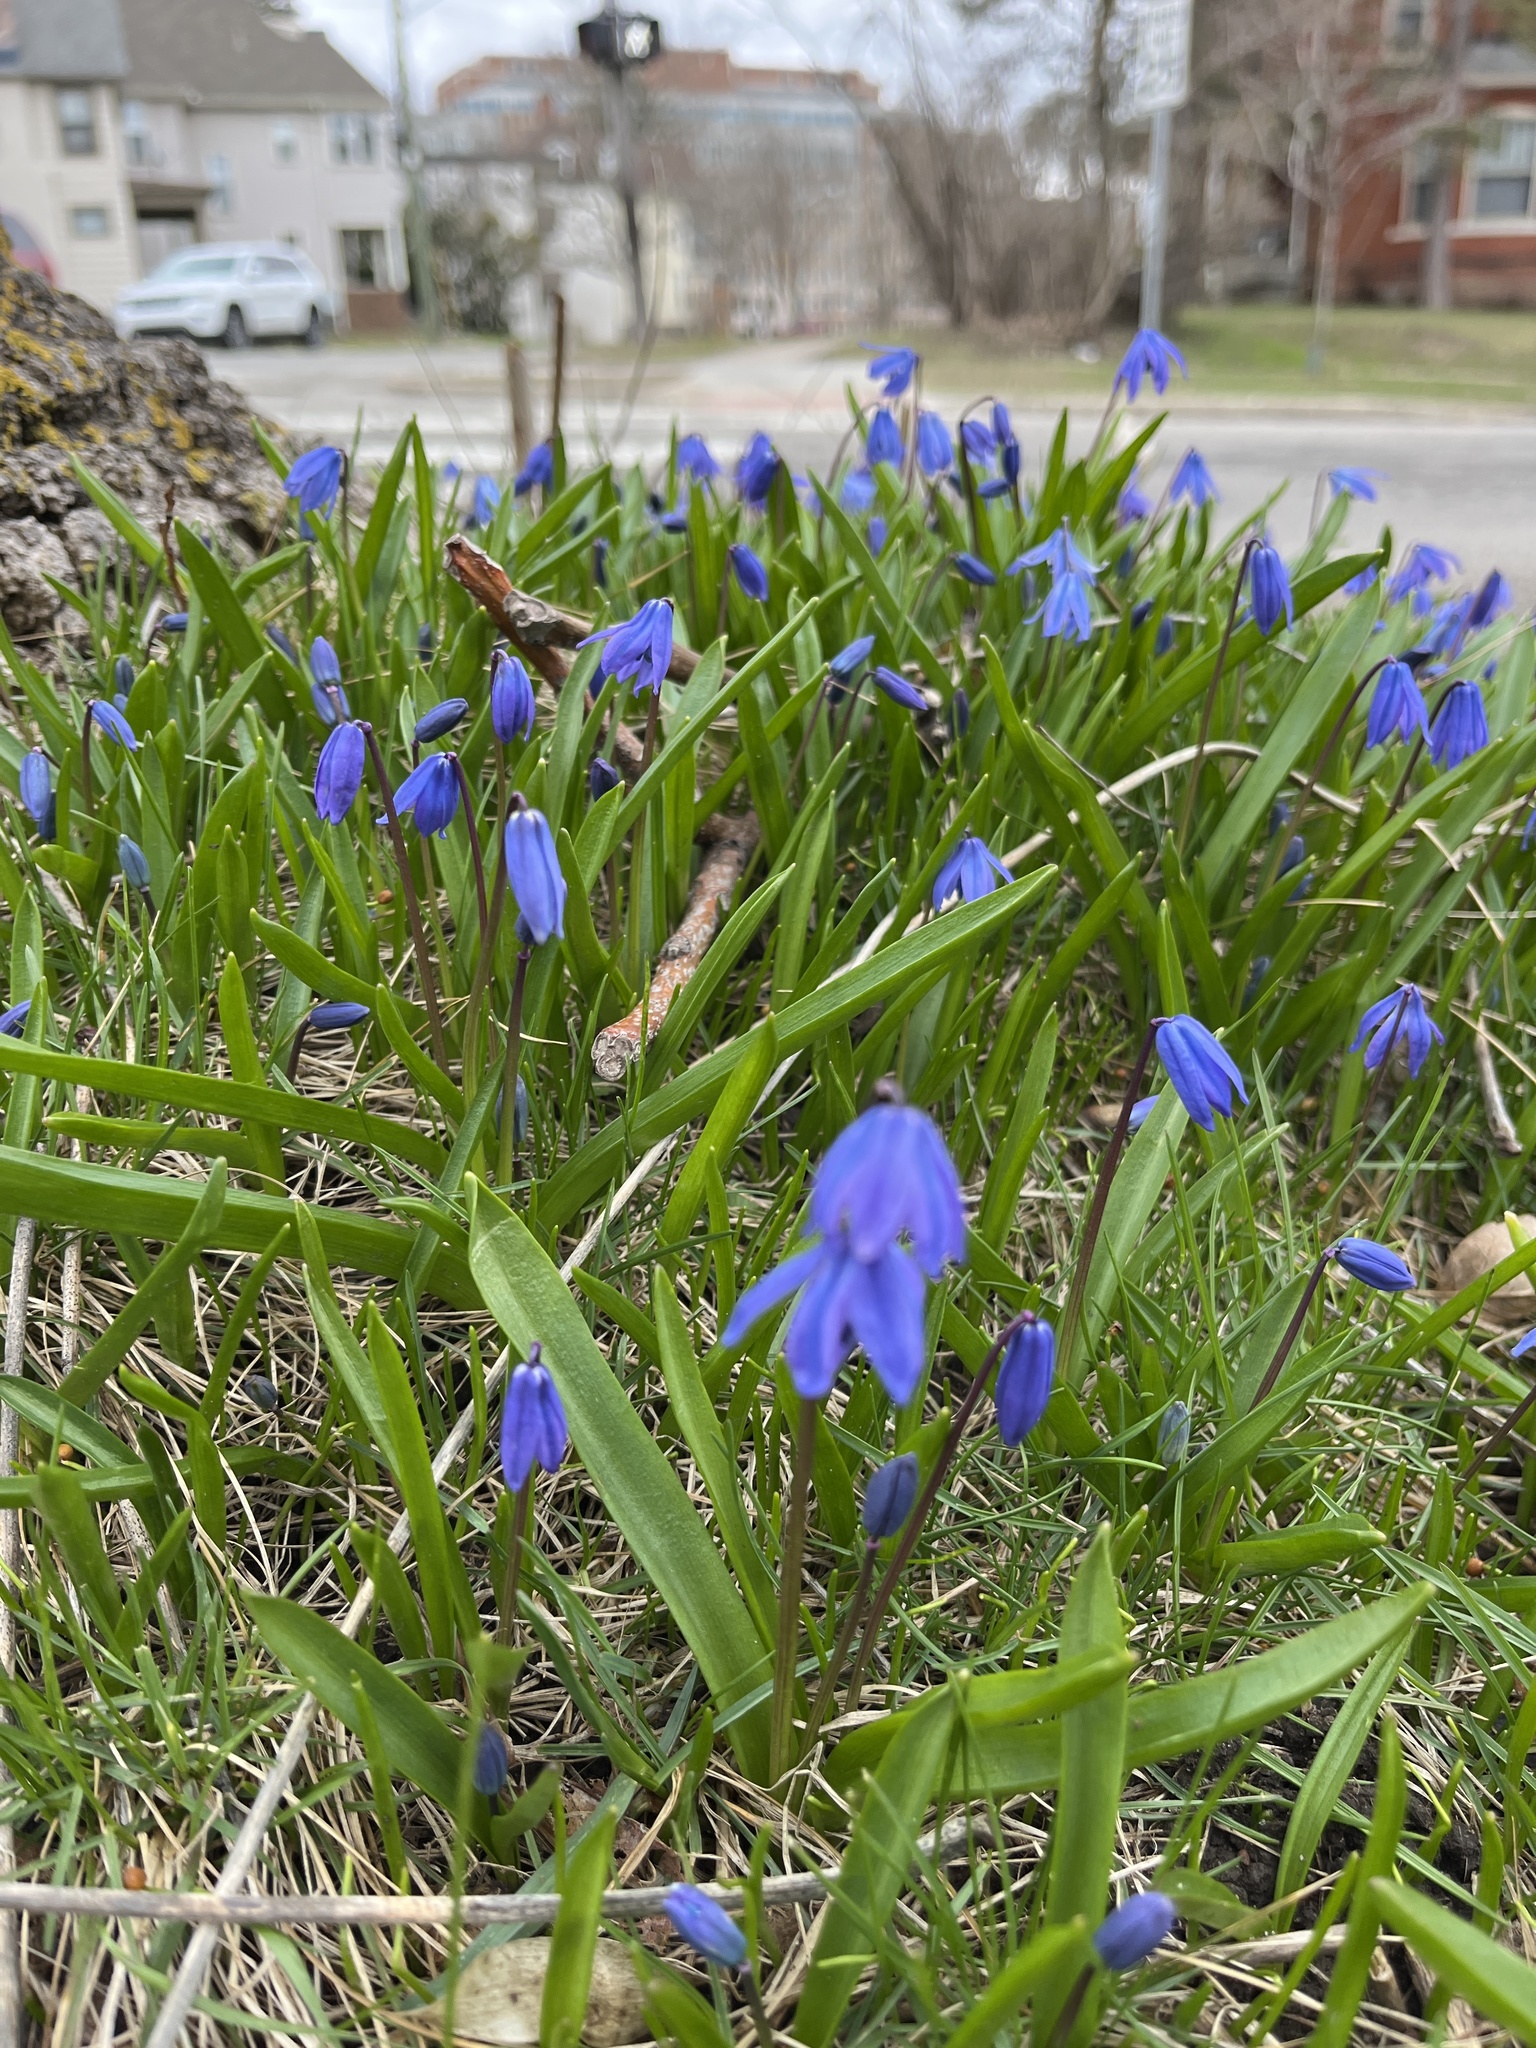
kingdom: Plantae
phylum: Tracheophyta
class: Liliopsida
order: Asparagales
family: Asparagaceae
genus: Scilla
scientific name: Scilla siberica
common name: Siberian squill
